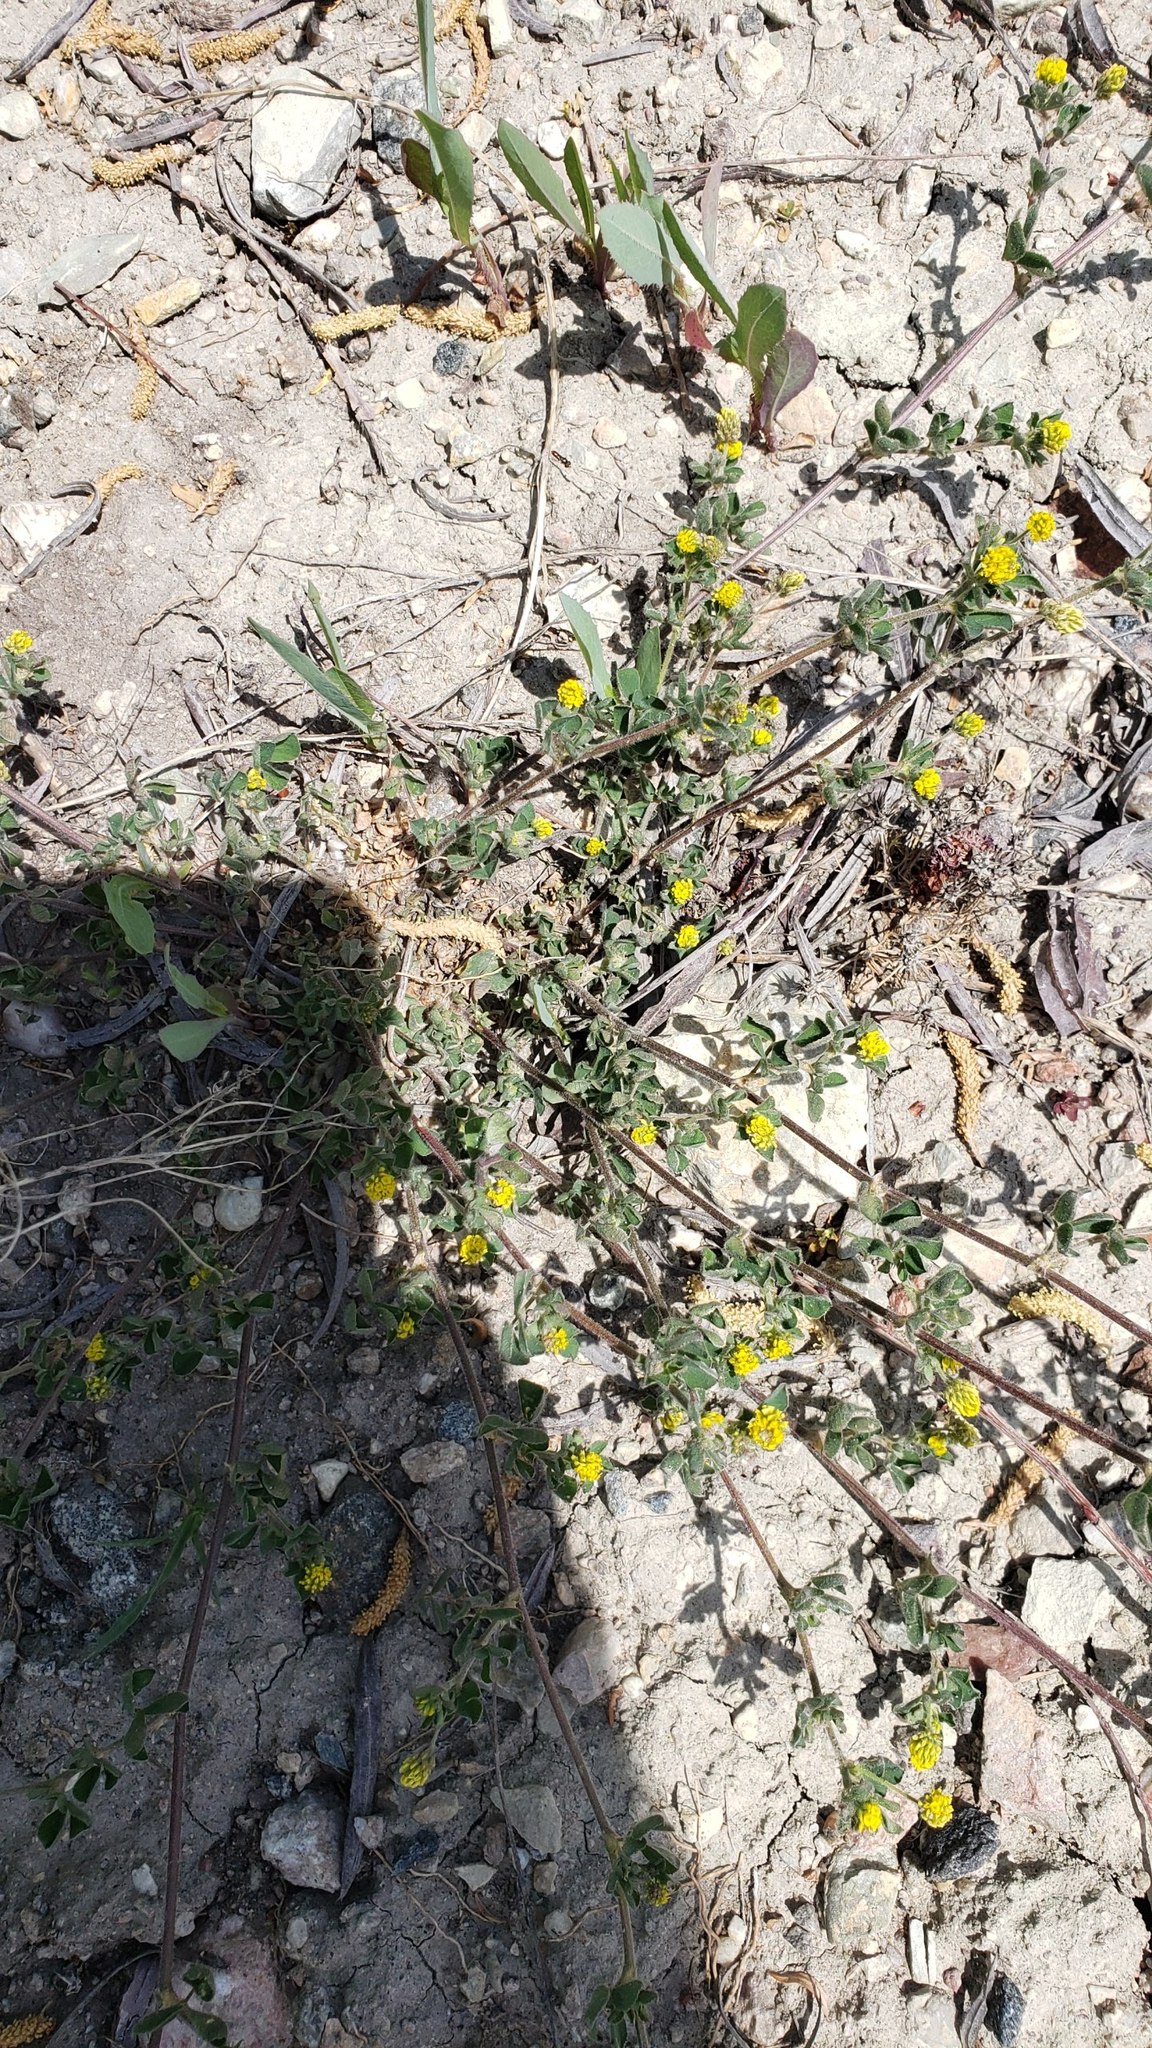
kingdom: Plantae
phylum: Tracheophyta
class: Magnoliopsida
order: Fabales
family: Fabaceae
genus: Medicago
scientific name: Medicago lupulina
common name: Black medick
